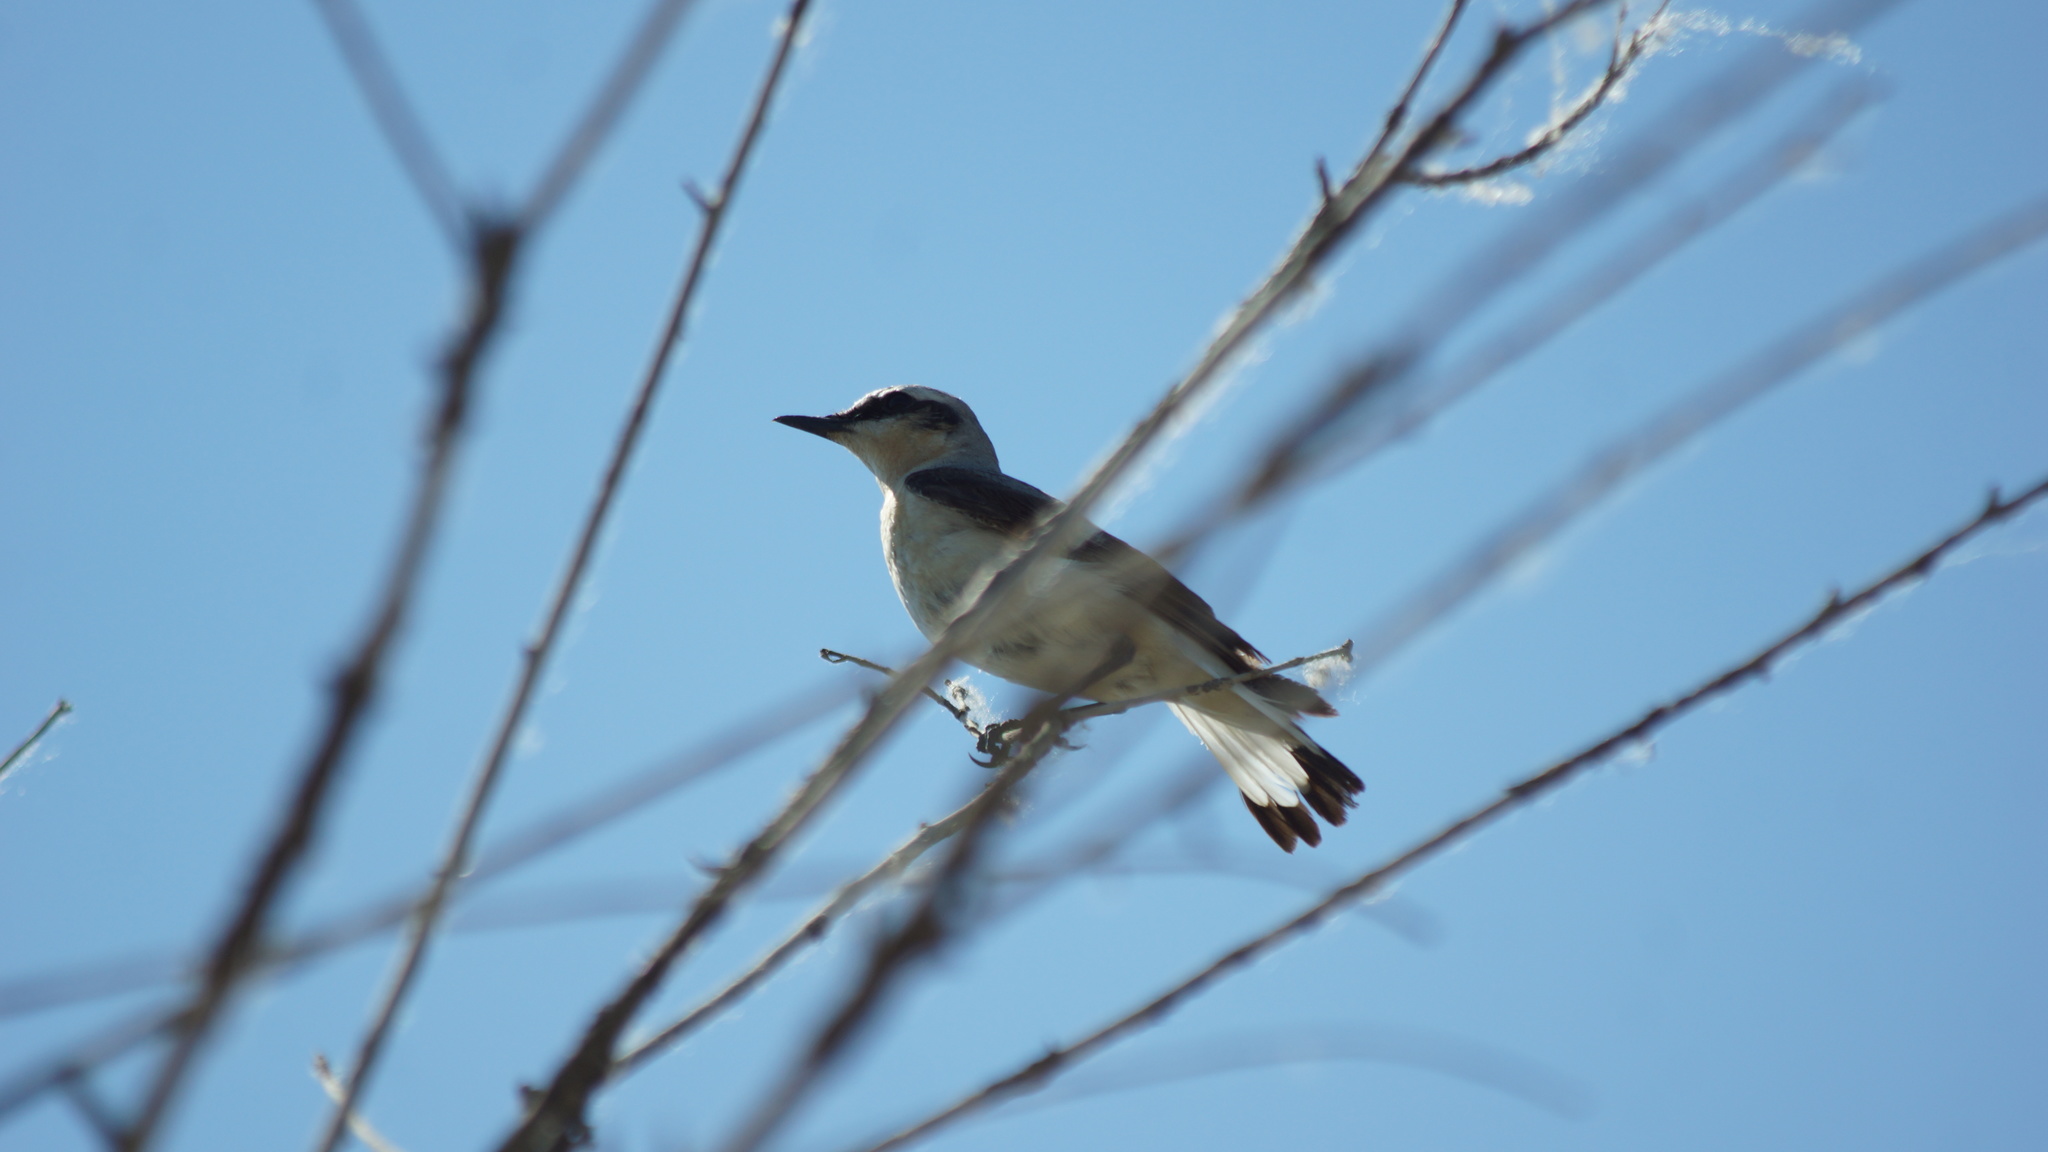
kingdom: Animalia
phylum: Chordata
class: Aves
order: Passeriformes
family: Muscicapidae
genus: Oenanthe
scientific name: Oenanthe oenanthe
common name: Northern wheatear
